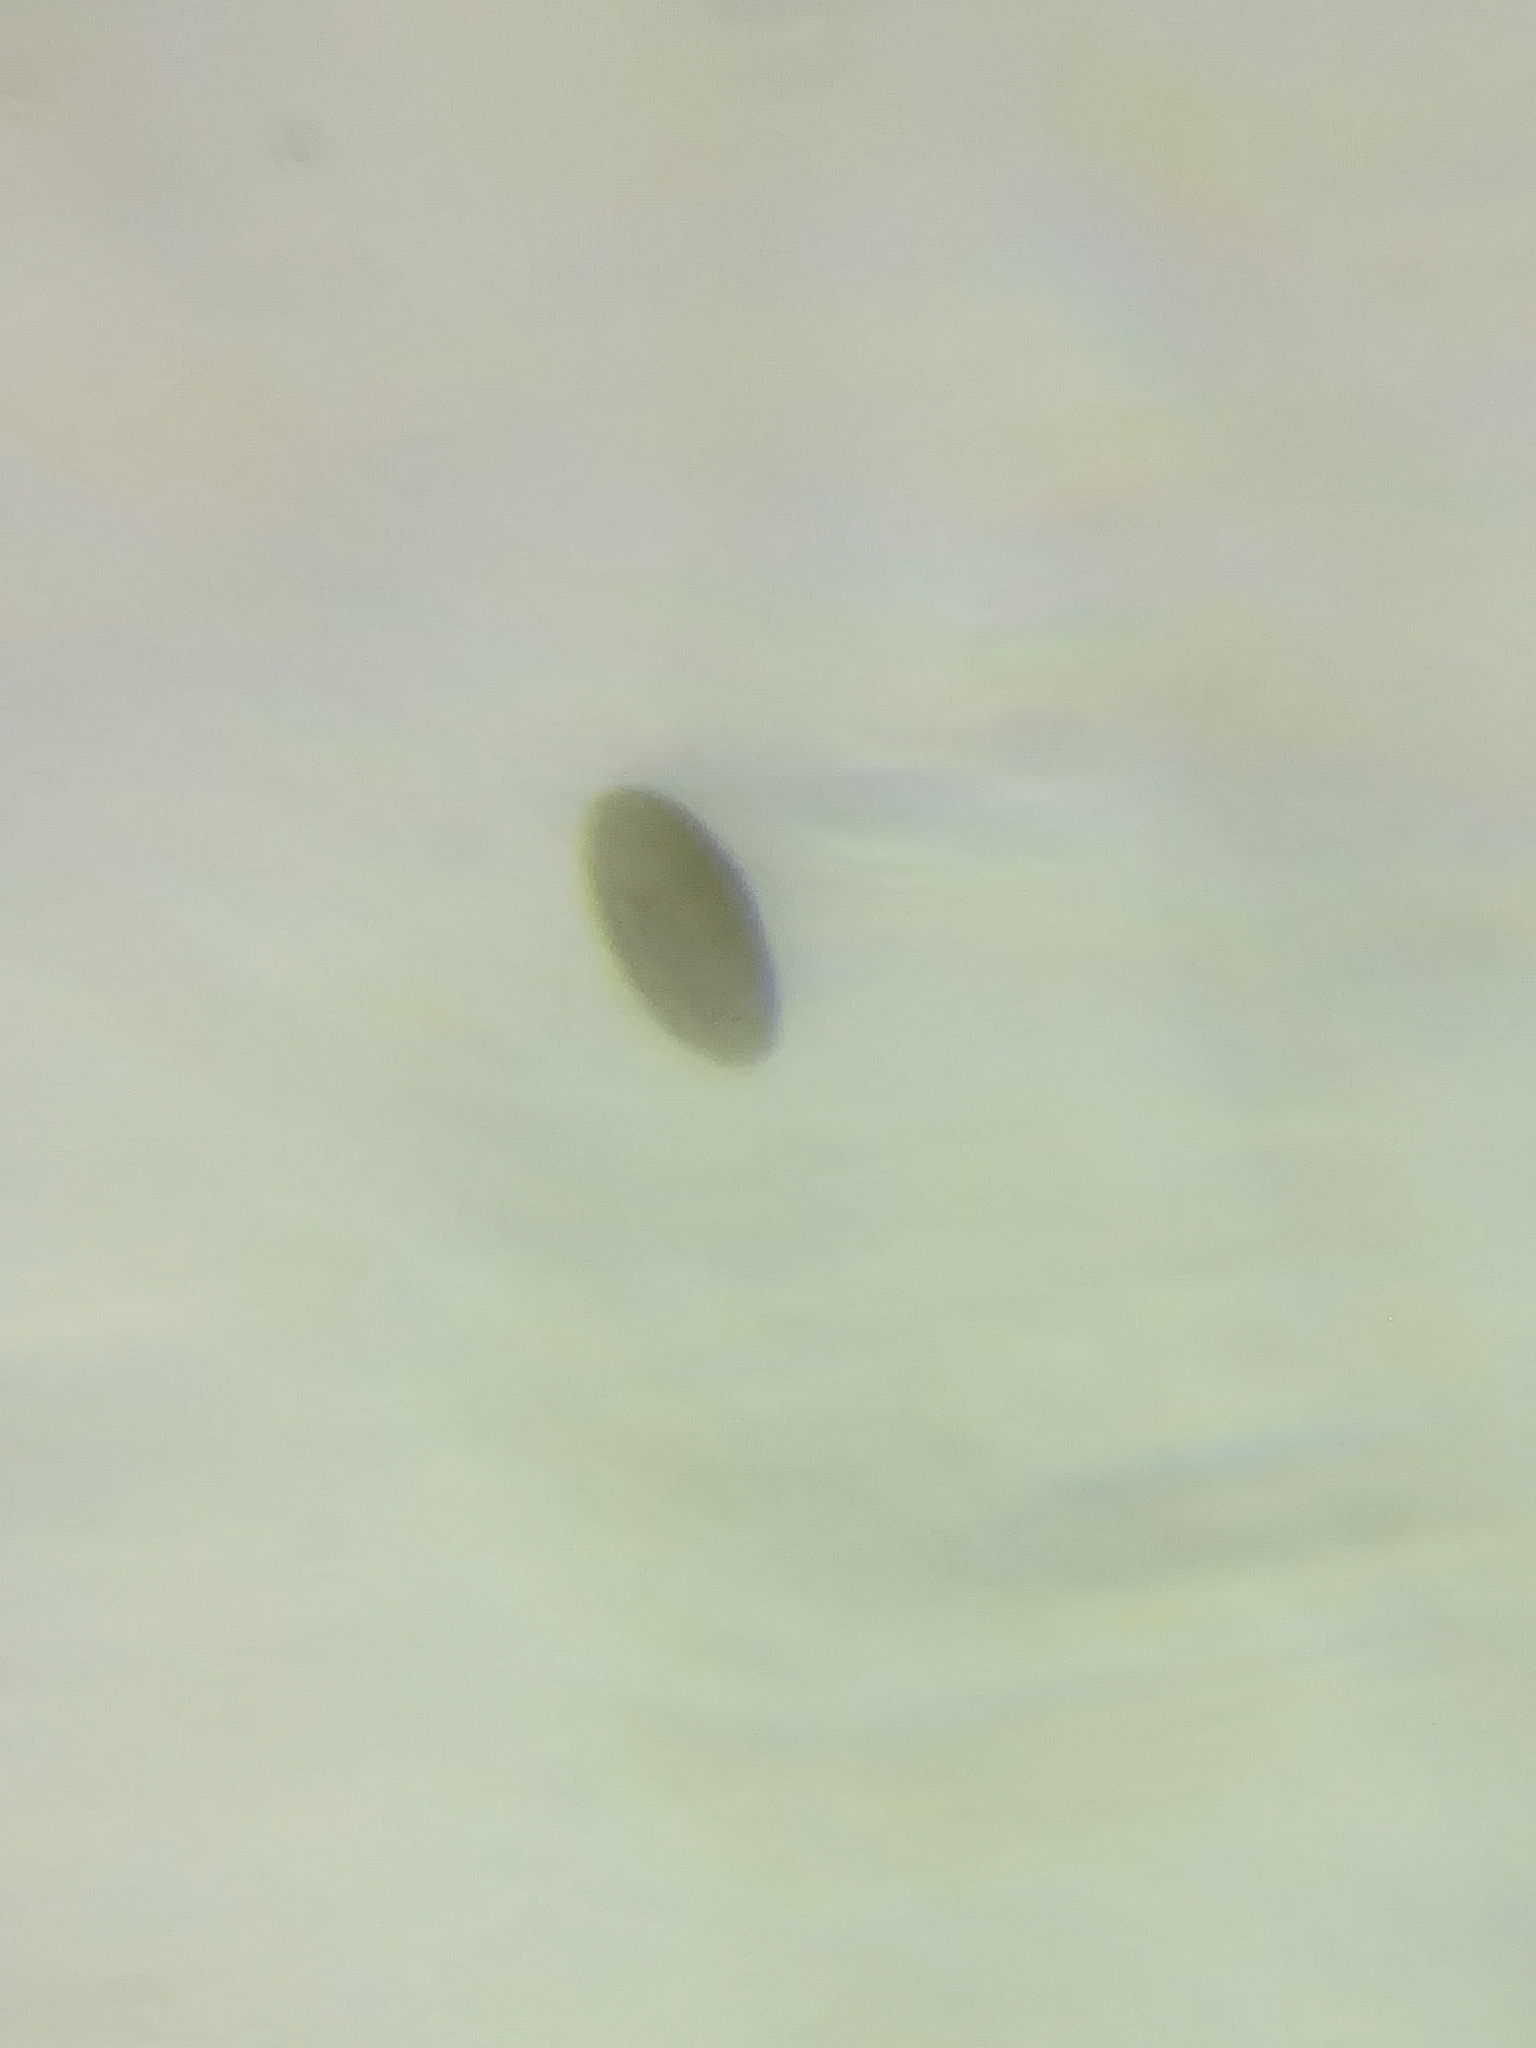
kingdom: Fungi
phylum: Ascomycota
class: Sordariomycetes
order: Xylariales
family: Hypoxylaceae
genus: Hypoxylon
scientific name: Hypoxylon rubiginosum
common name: Rusty woodwart
